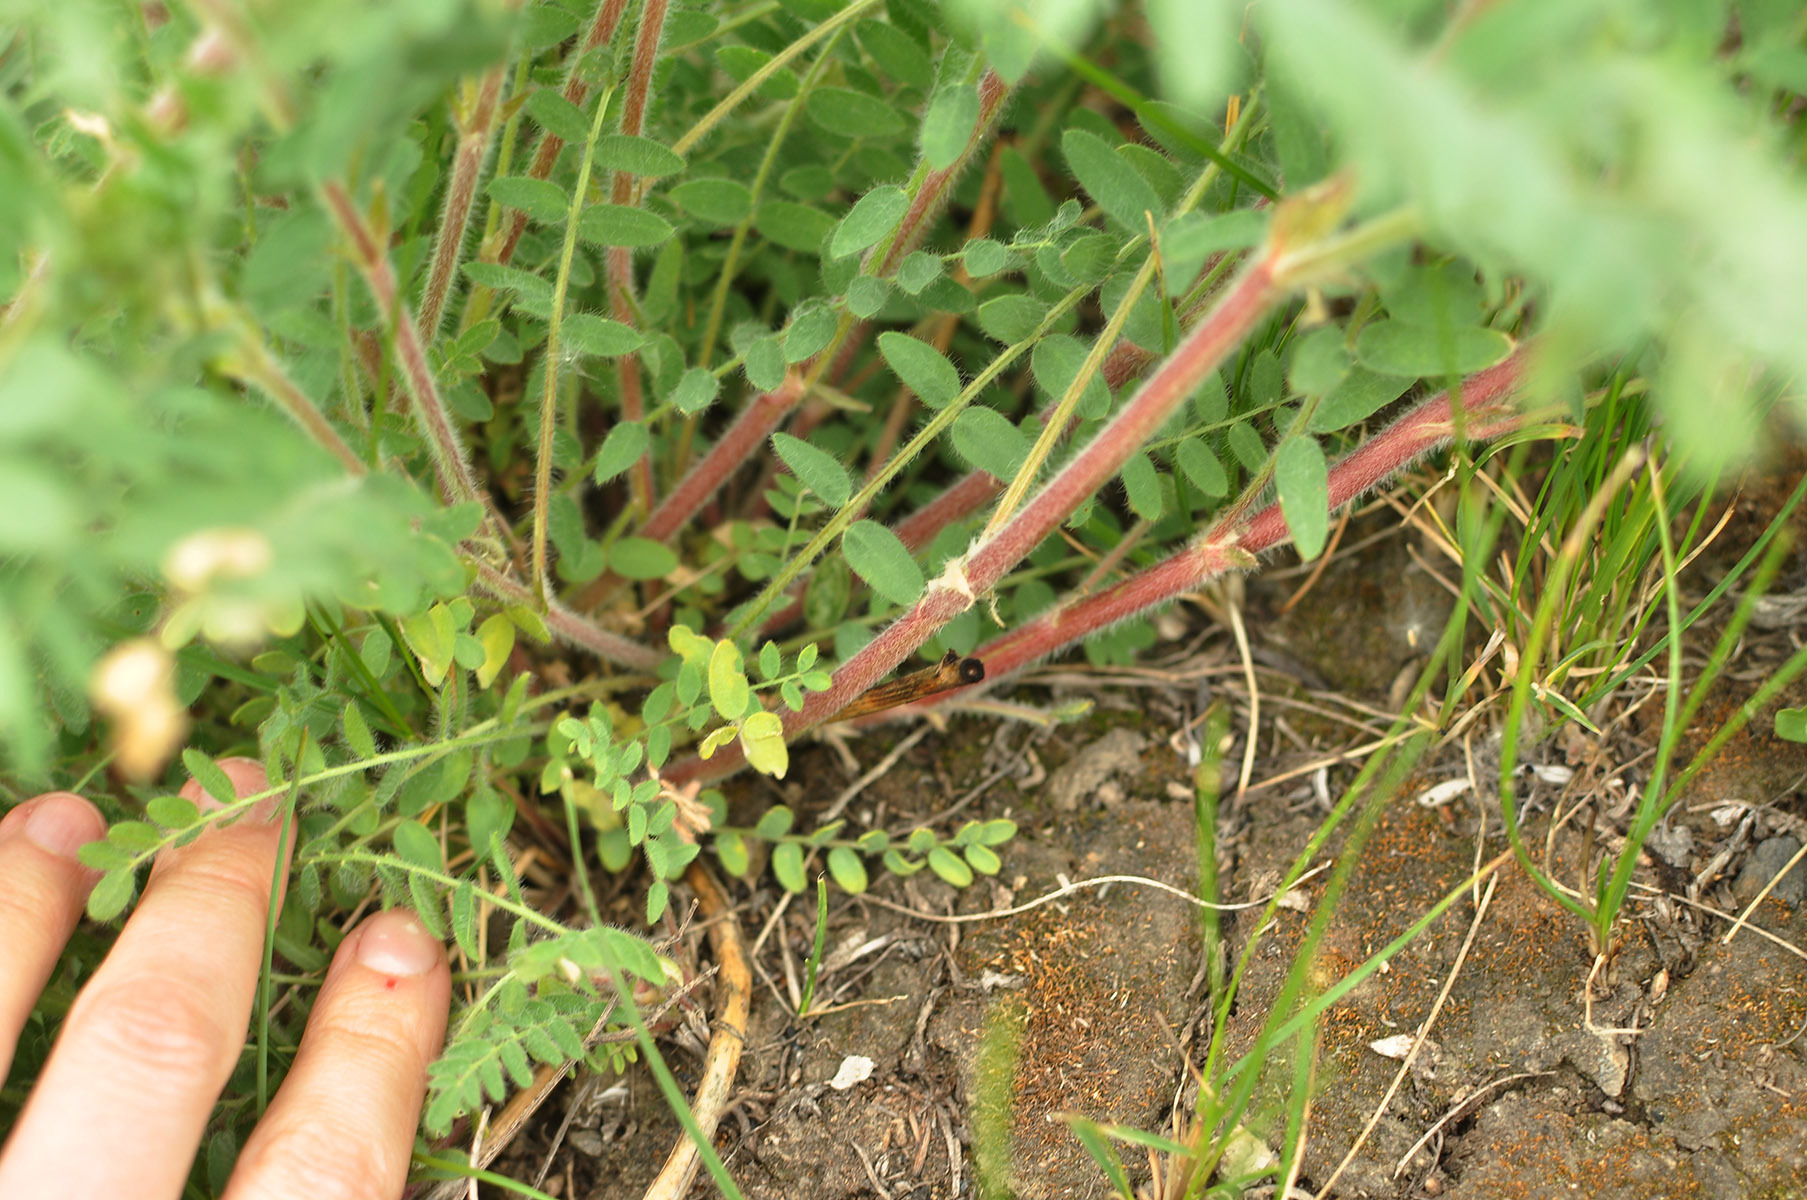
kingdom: Plantae
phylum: Tracheophyta
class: Magnoliopsida
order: Fabales
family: Fabaceae
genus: Oxytropis
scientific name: Oxytropis pilosa
